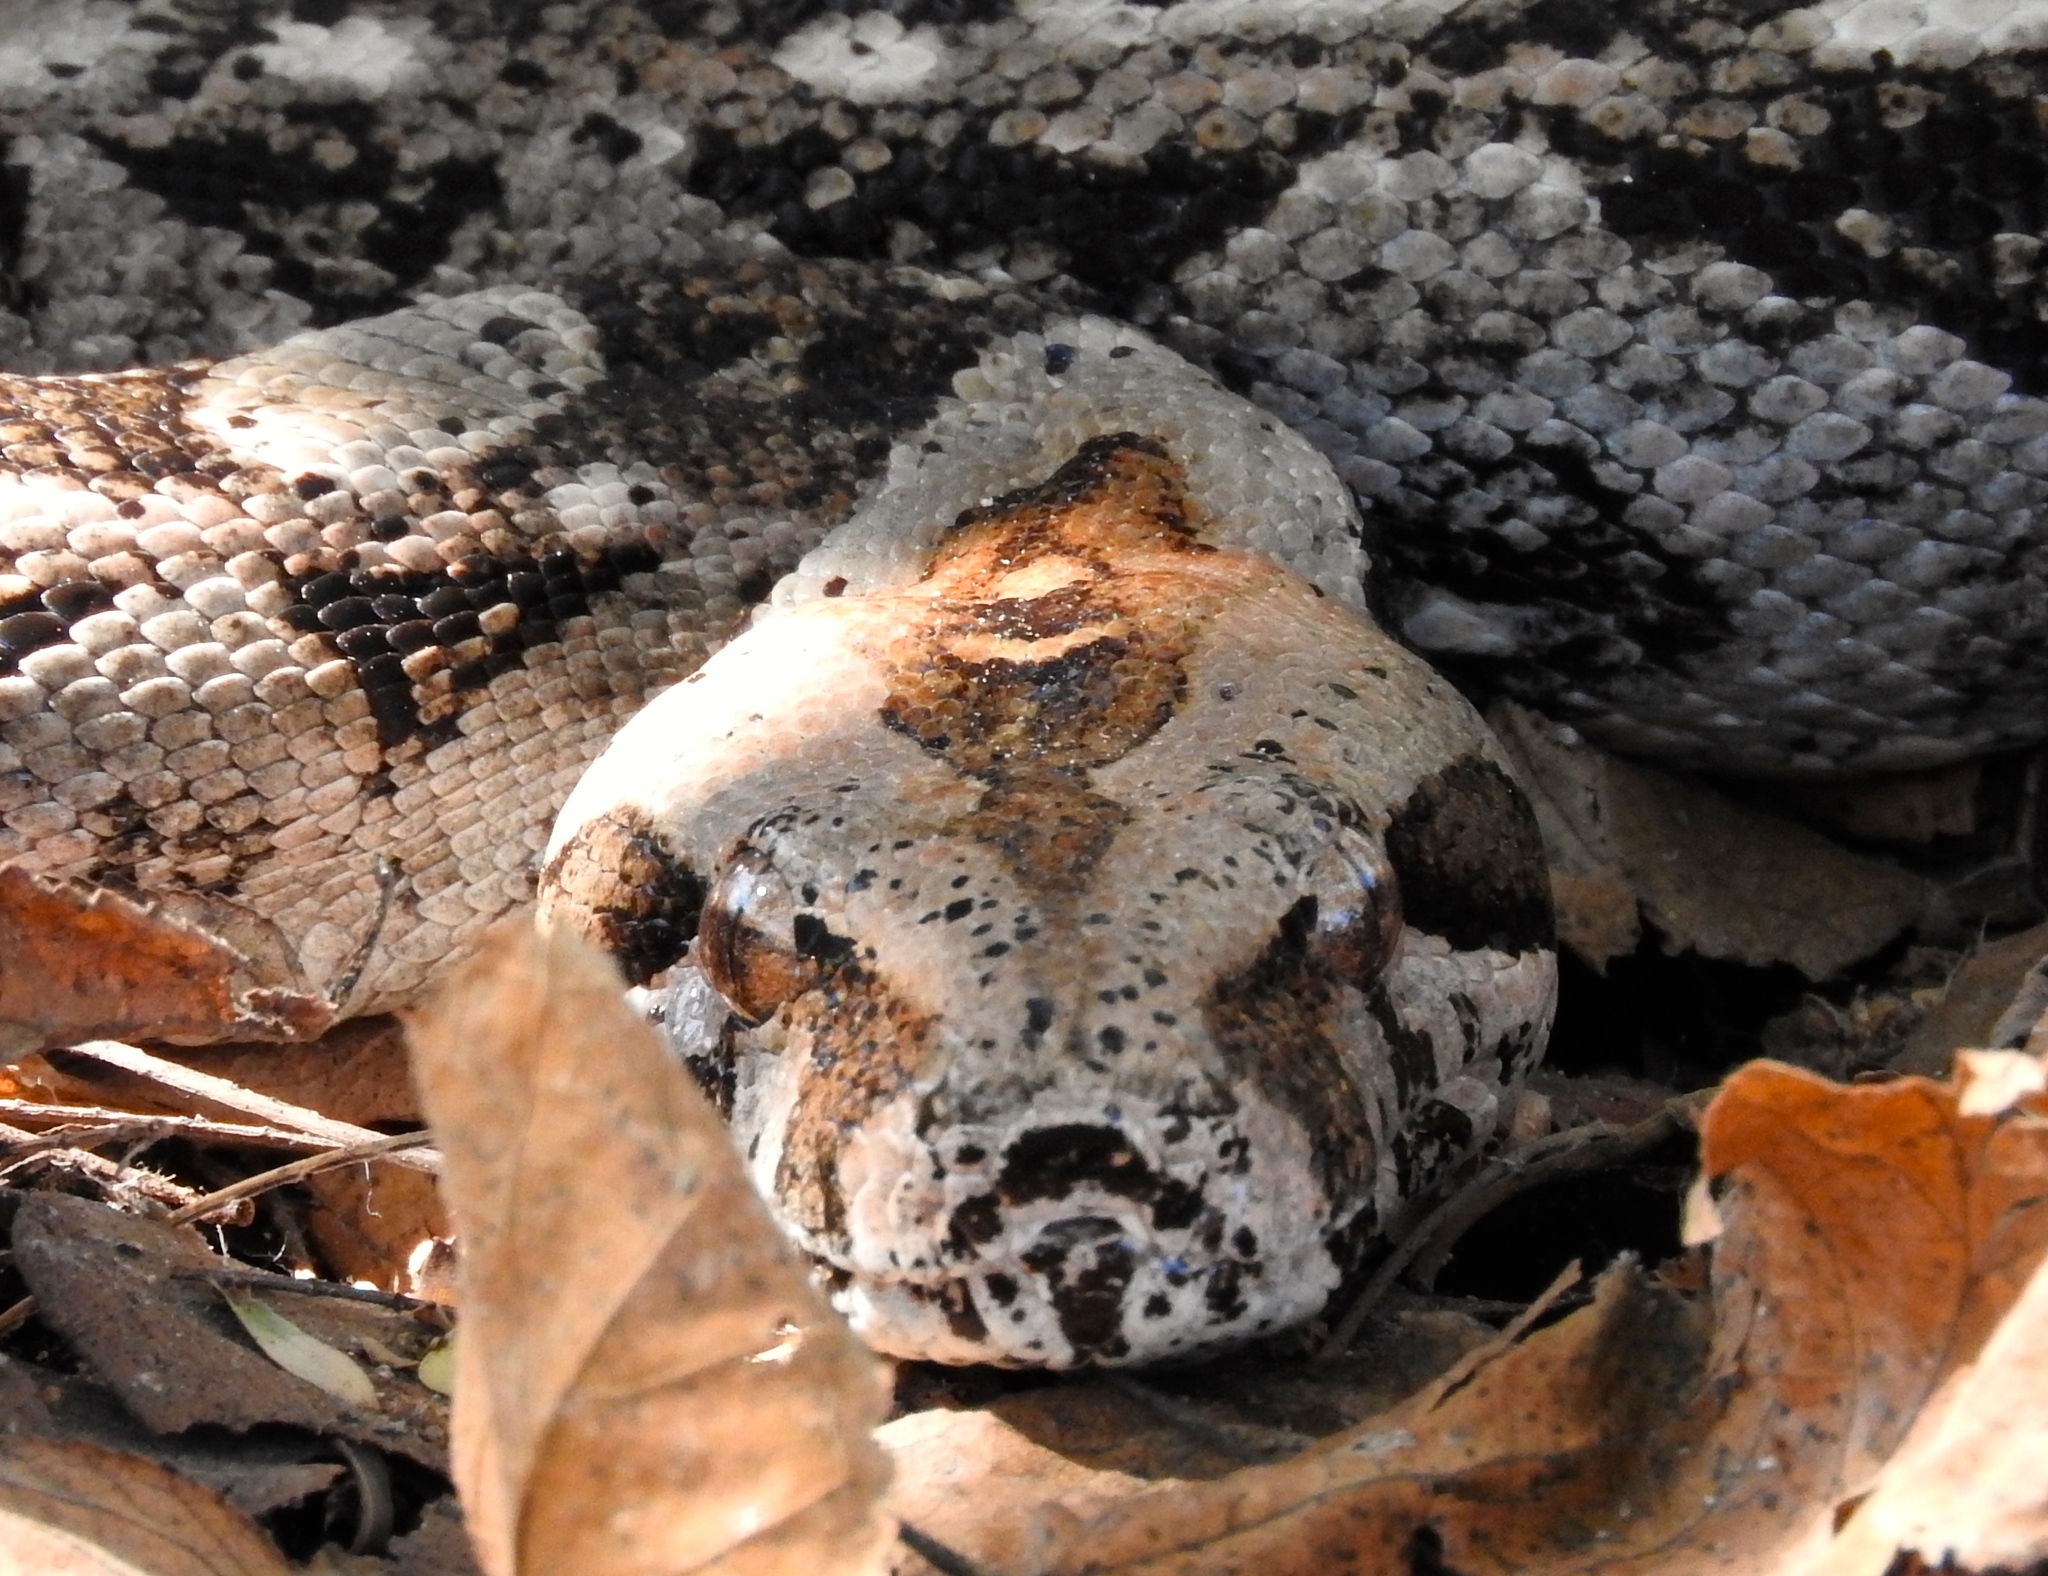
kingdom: Animalia
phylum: Chordata
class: Squamata
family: Boidae
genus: Boa
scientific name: Boa
